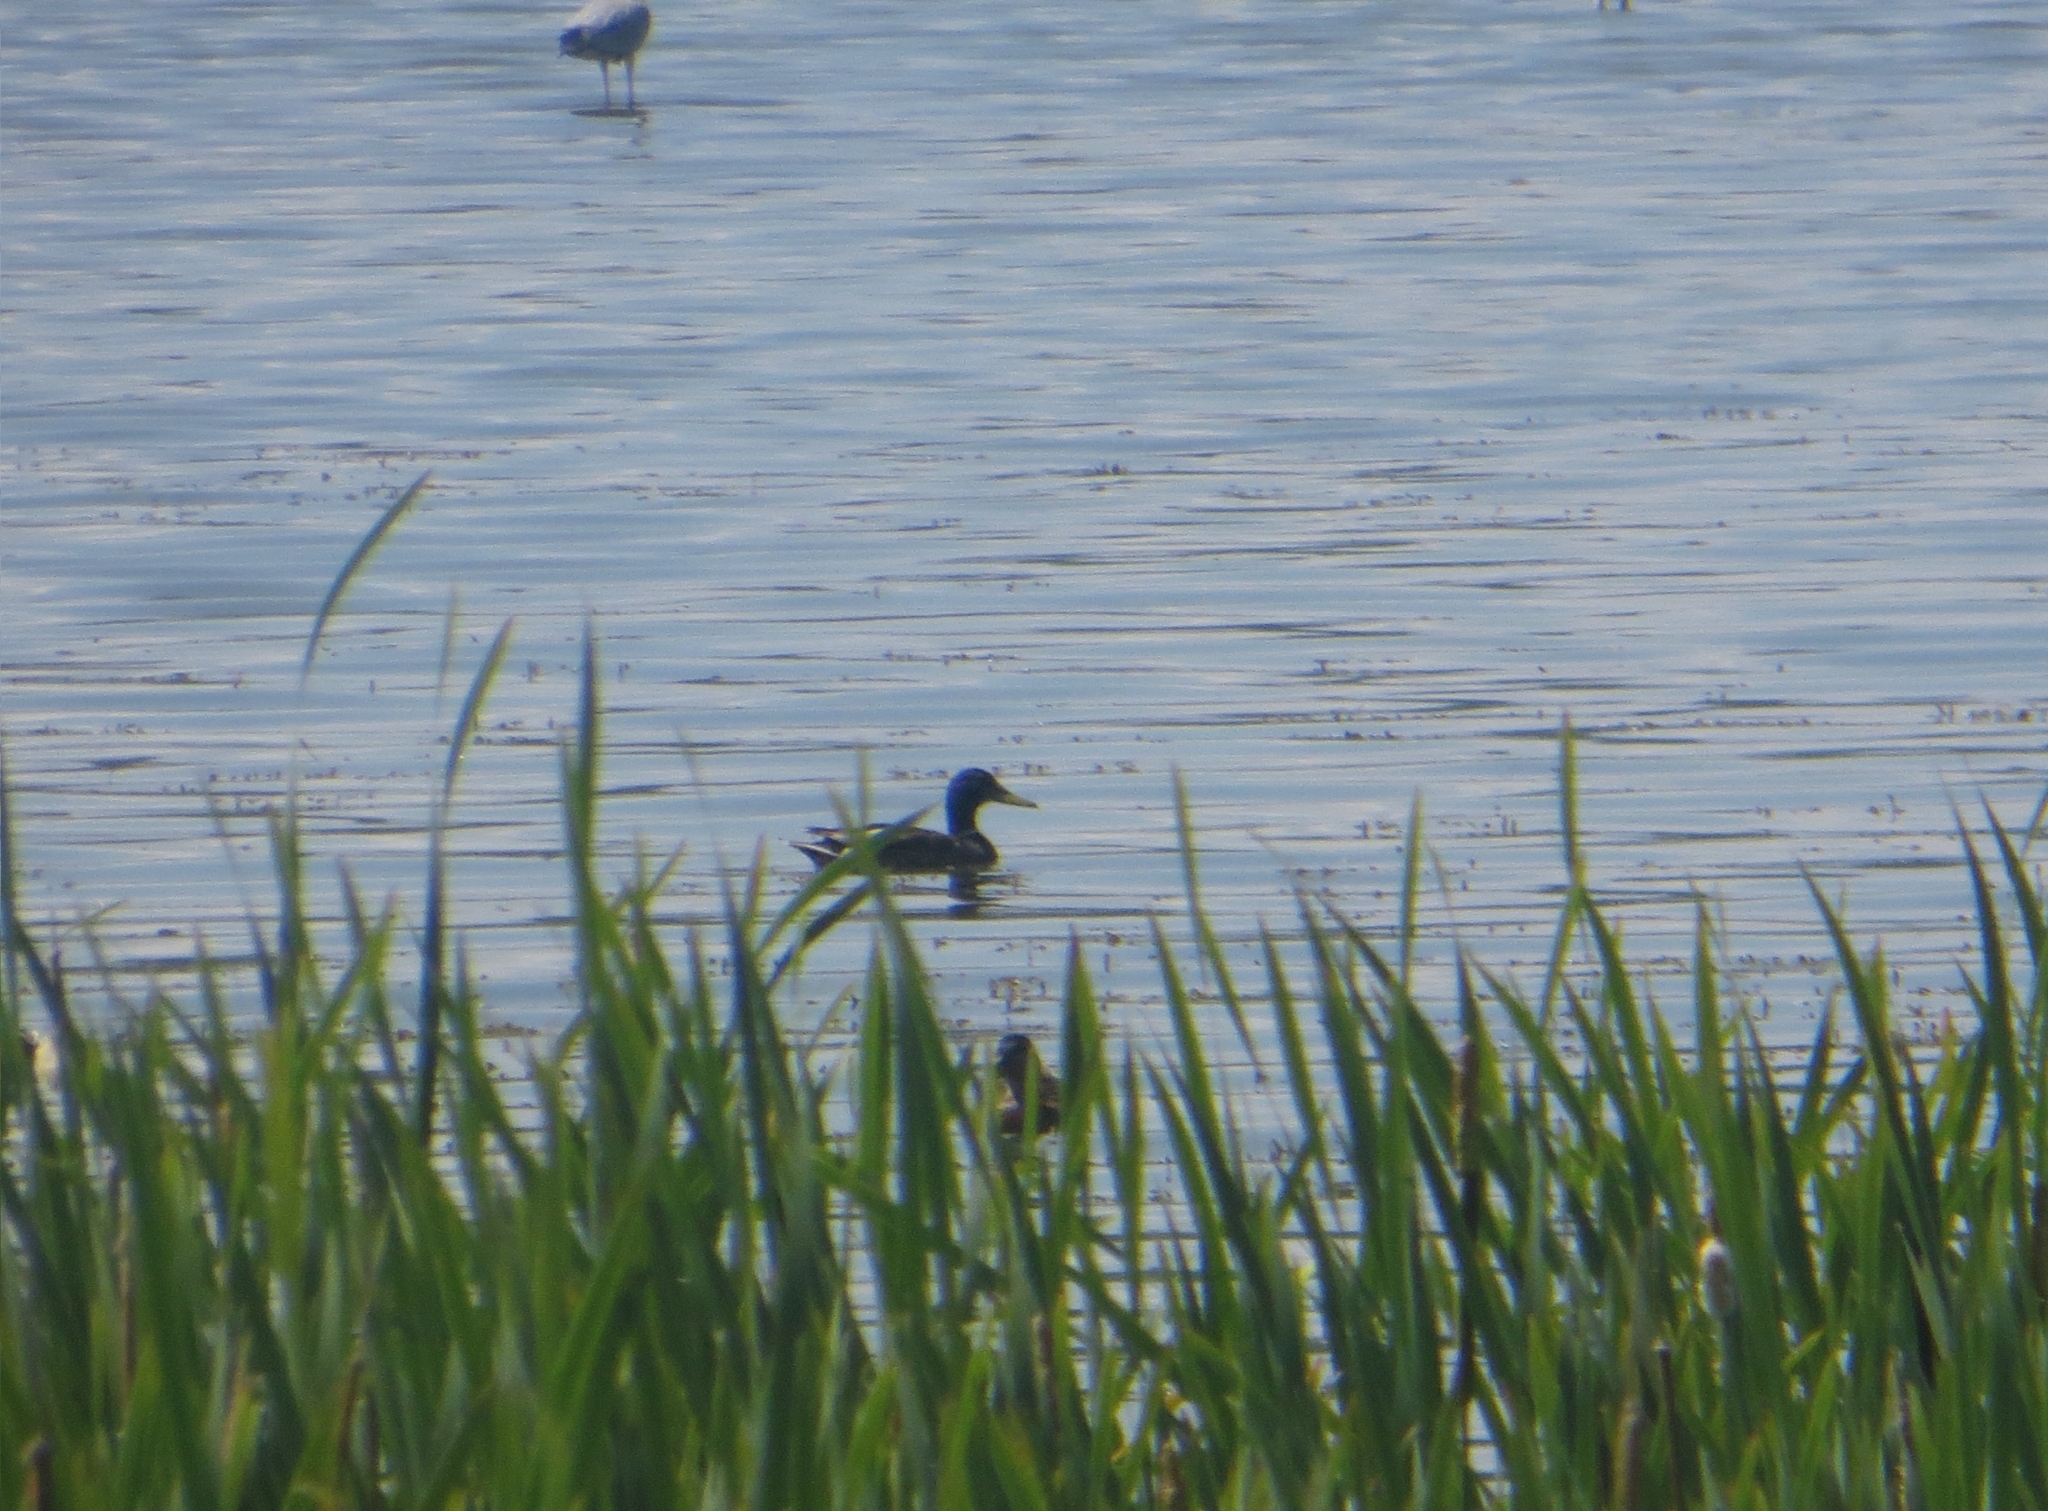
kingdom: Animalia
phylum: Chordata
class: Aves
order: Anseriformes
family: Anatidae
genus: Anas
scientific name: Anas platyrhynchos
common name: Mallard
